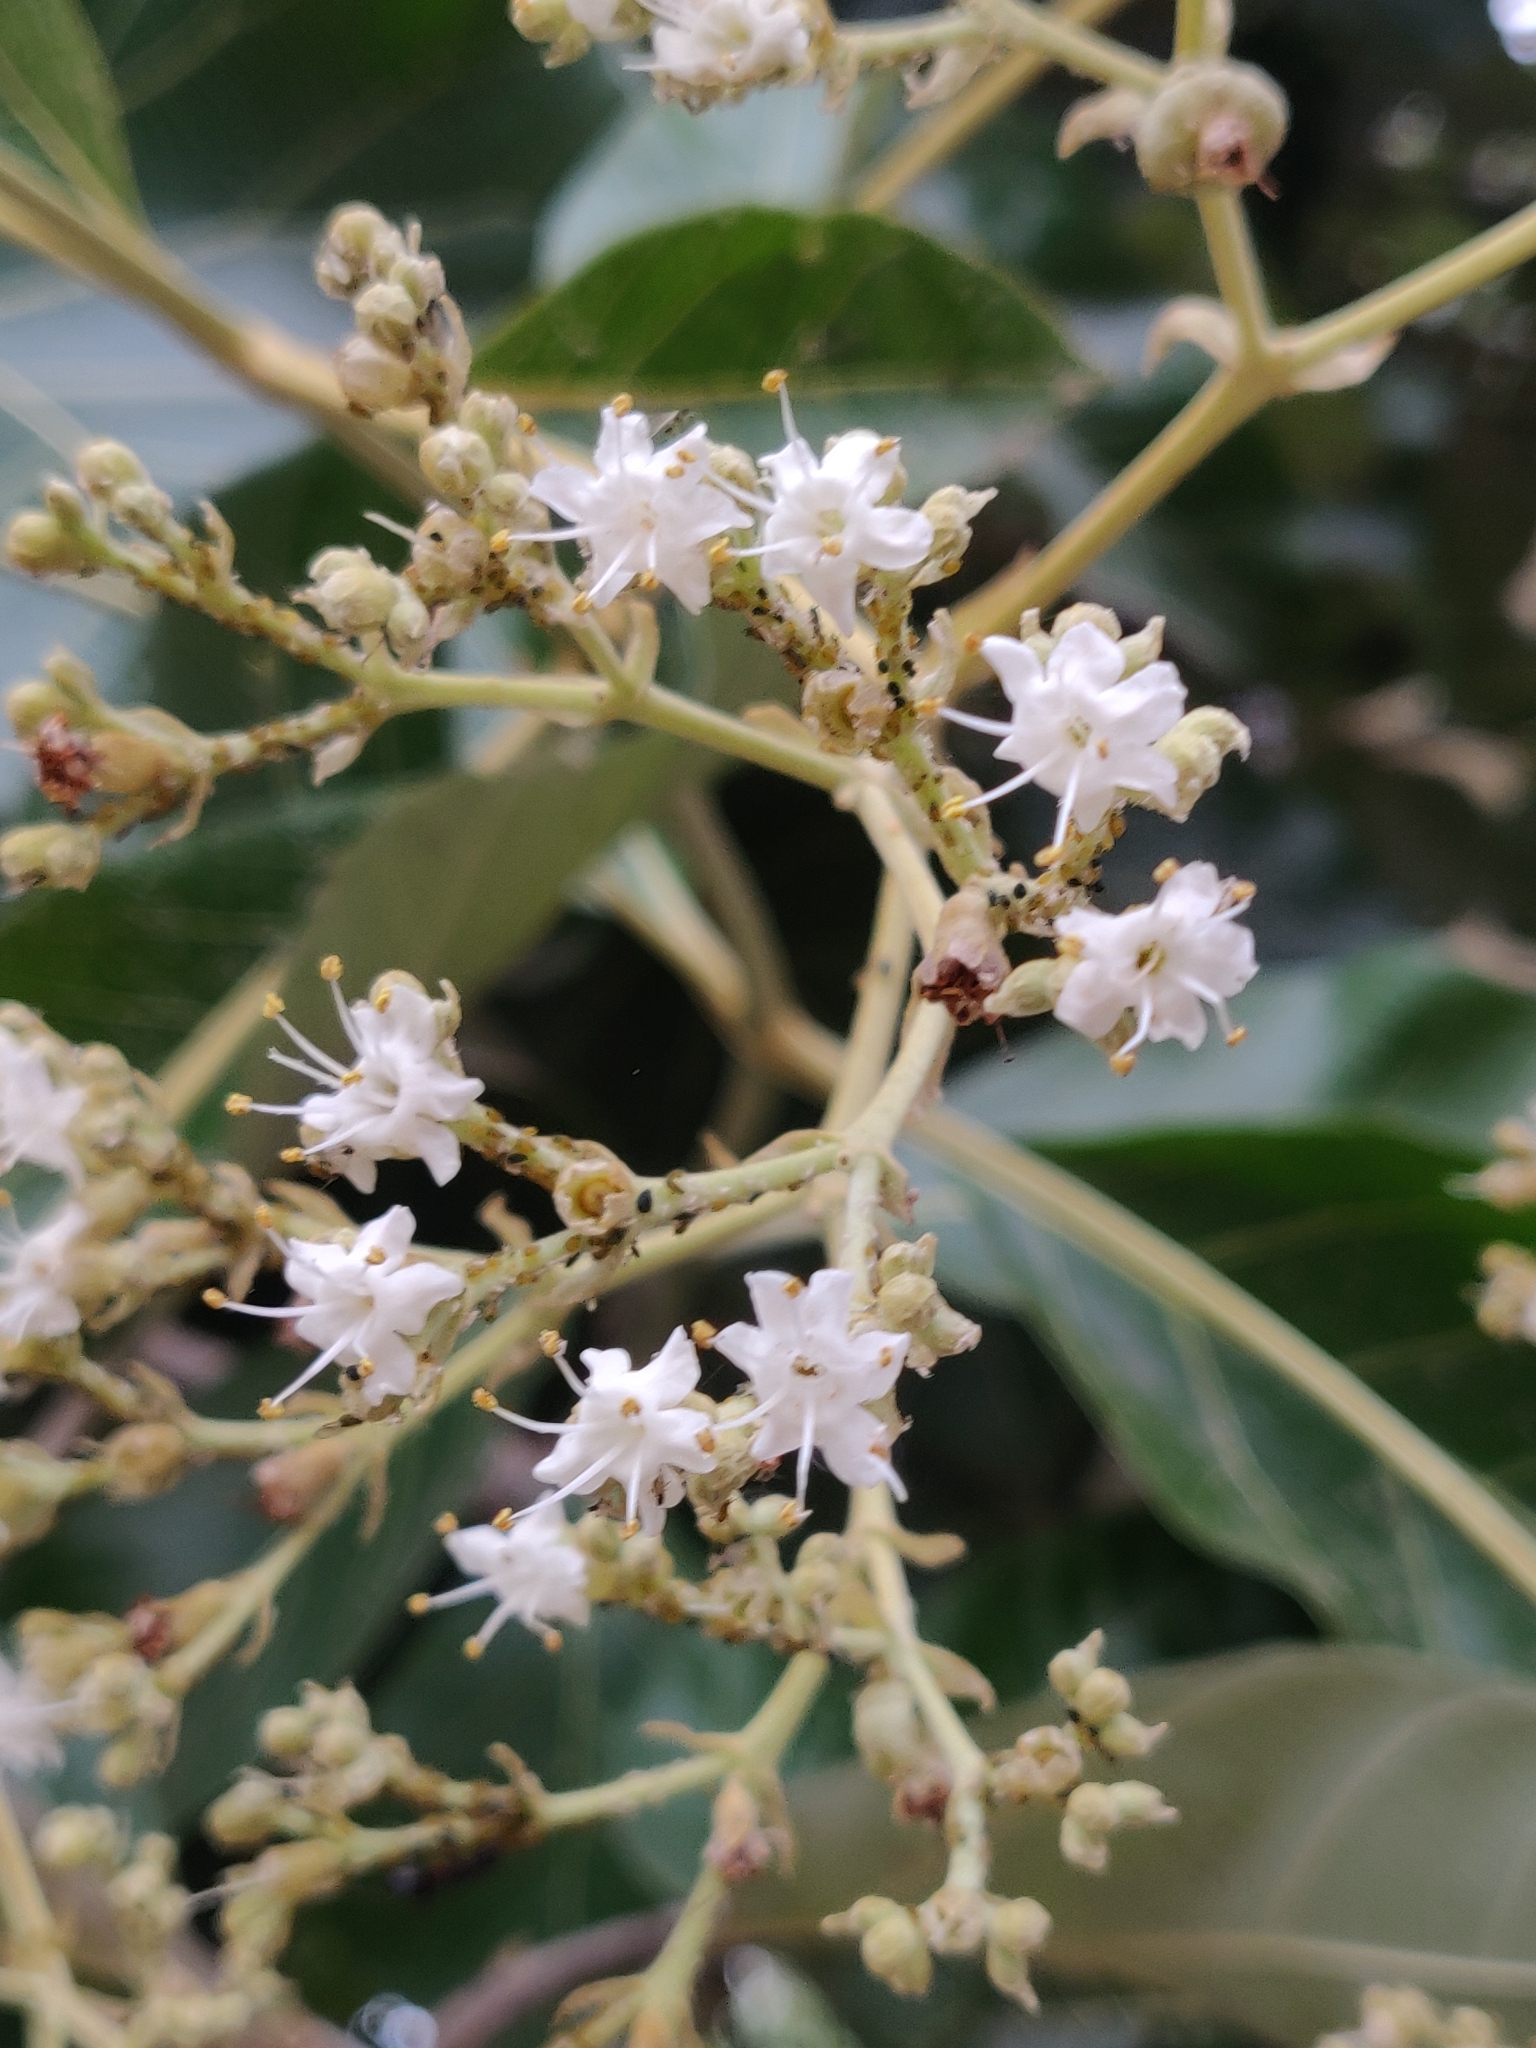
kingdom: Plantae
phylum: Tracheophyta
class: Magnoliopsida
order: Lamiales
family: Lamiaceae
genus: Tectona
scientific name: Tectona grandis
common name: Teak
